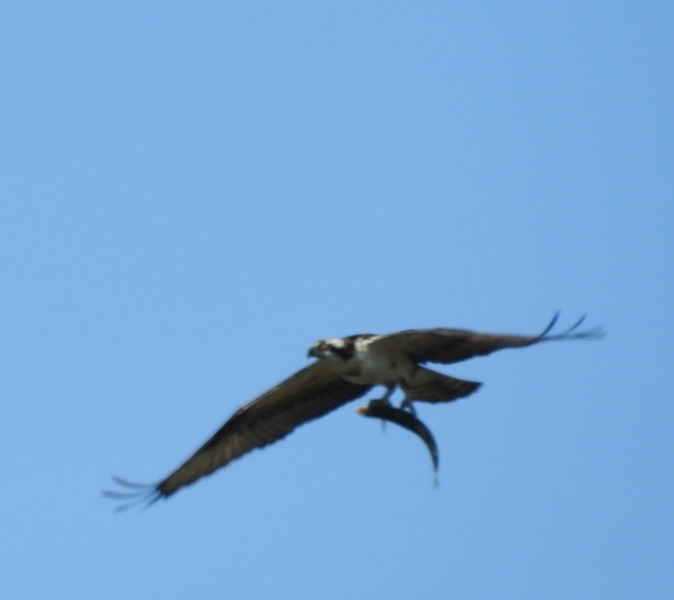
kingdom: Animalia
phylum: Chordata
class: Aves
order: Accipitriformes
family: Pandionidae
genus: Pandion
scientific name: Pandion haliaetus
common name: Osprey
